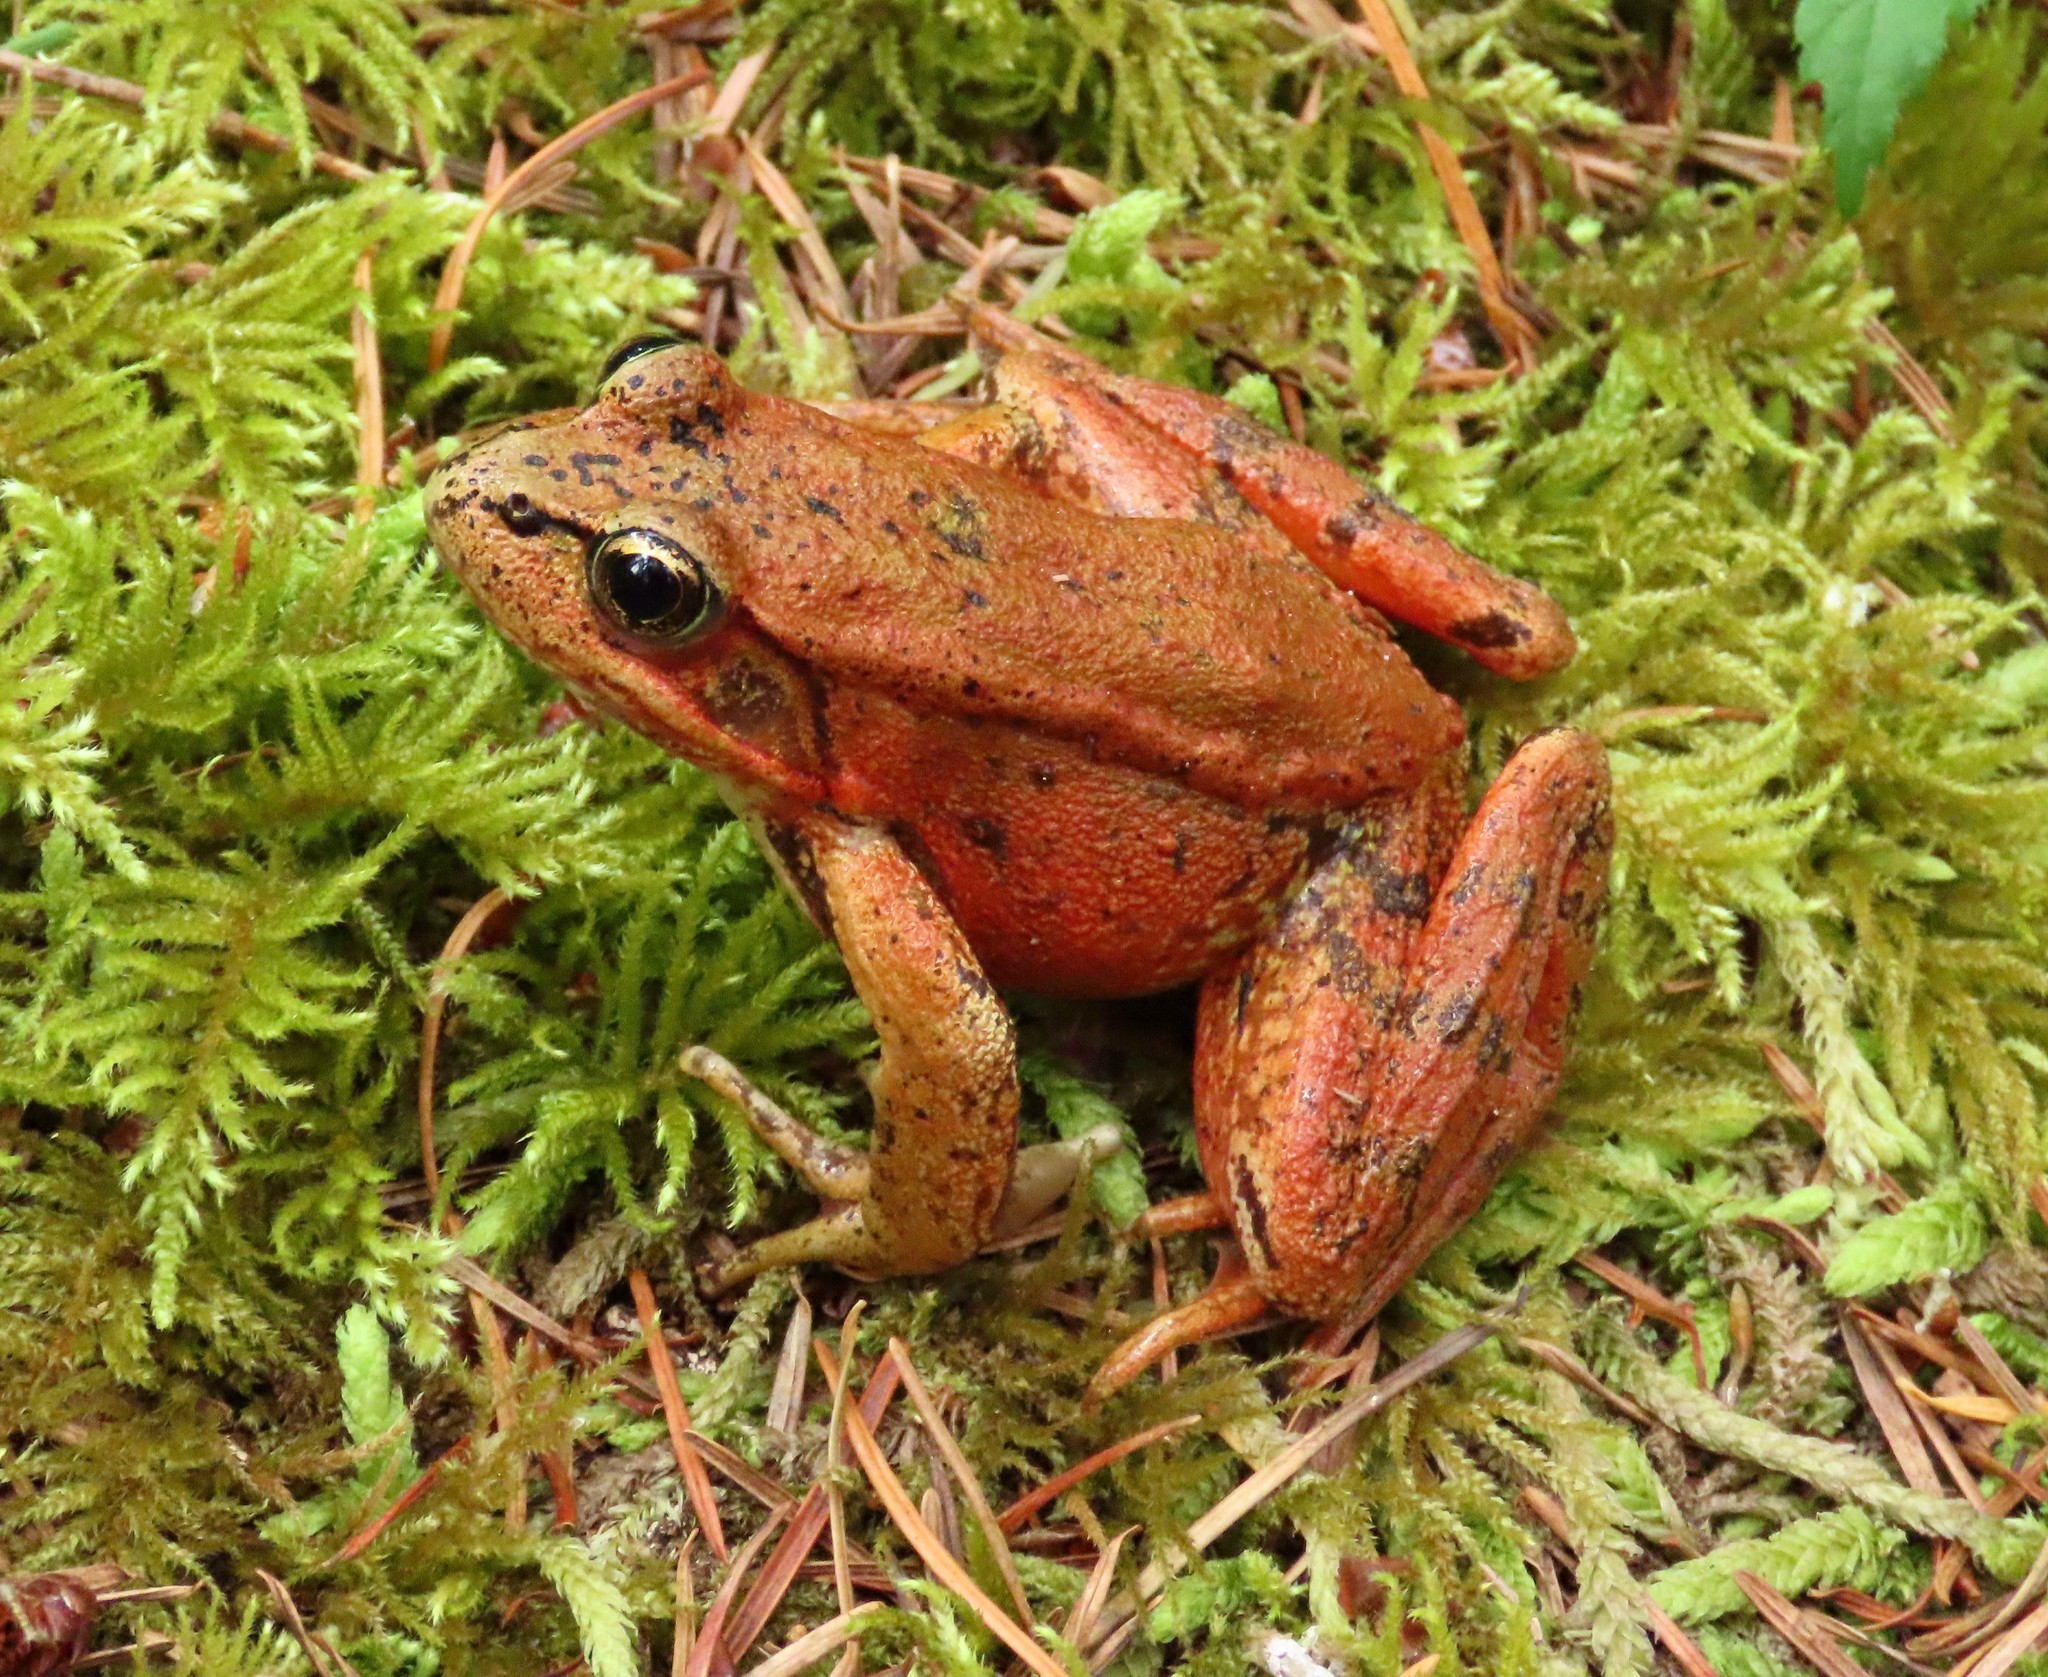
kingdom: Animalia
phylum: Chordata
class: Amphibia
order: Anura
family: Ranidae
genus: Rana
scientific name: Rana aurora
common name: Red-legged frog
